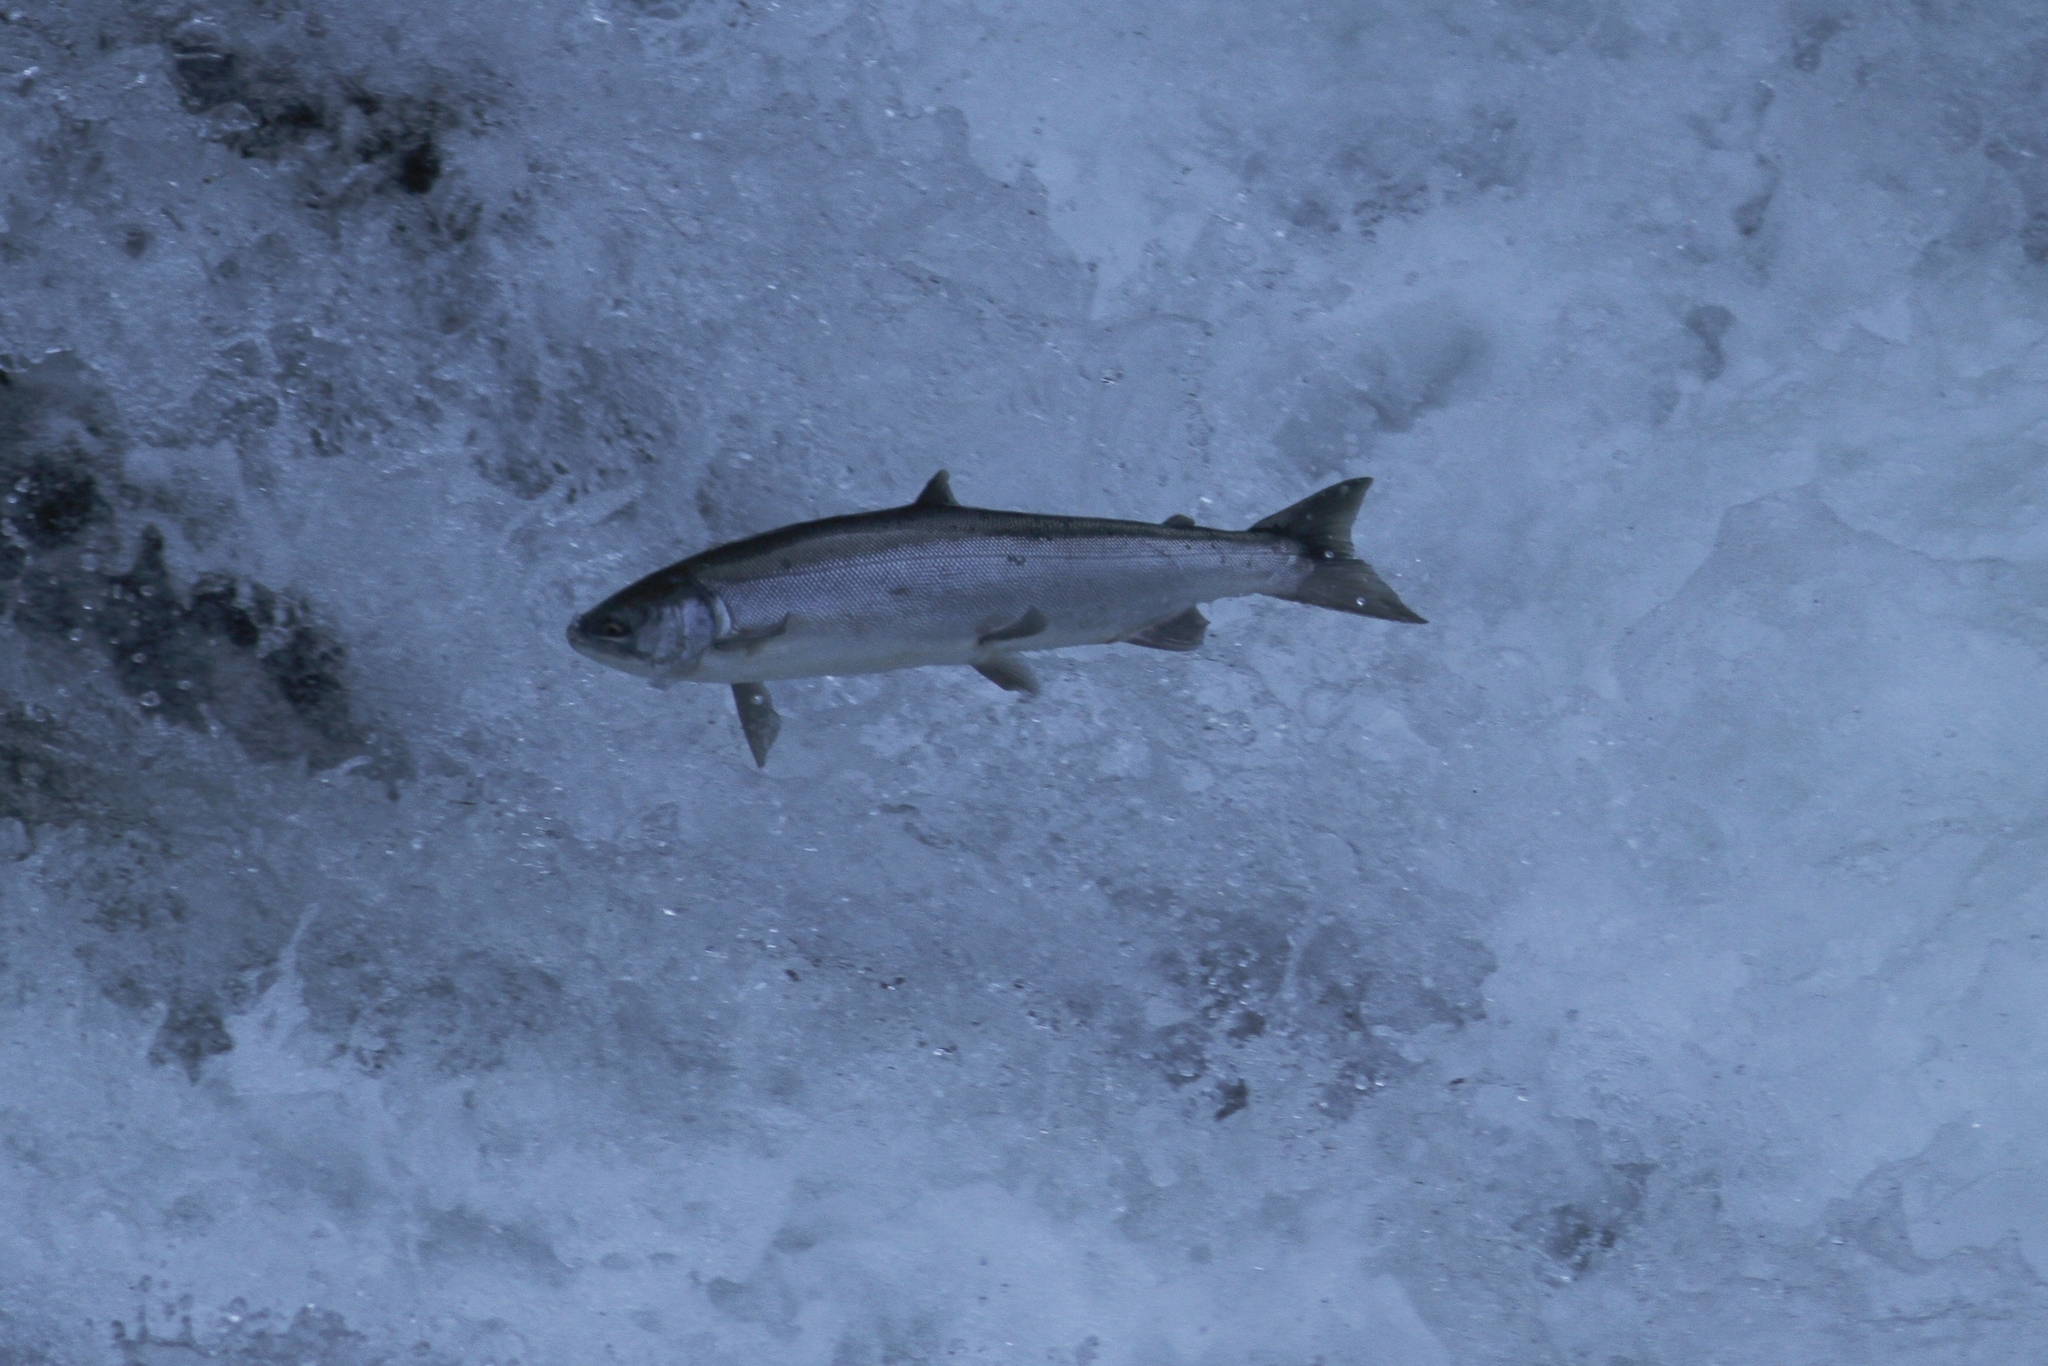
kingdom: Animalia
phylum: Chordata
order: Salmoniformes
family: Salmonidae
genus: Oncorhynchus
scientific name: Oncorhynchus nerka
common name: Sockeye salmon
